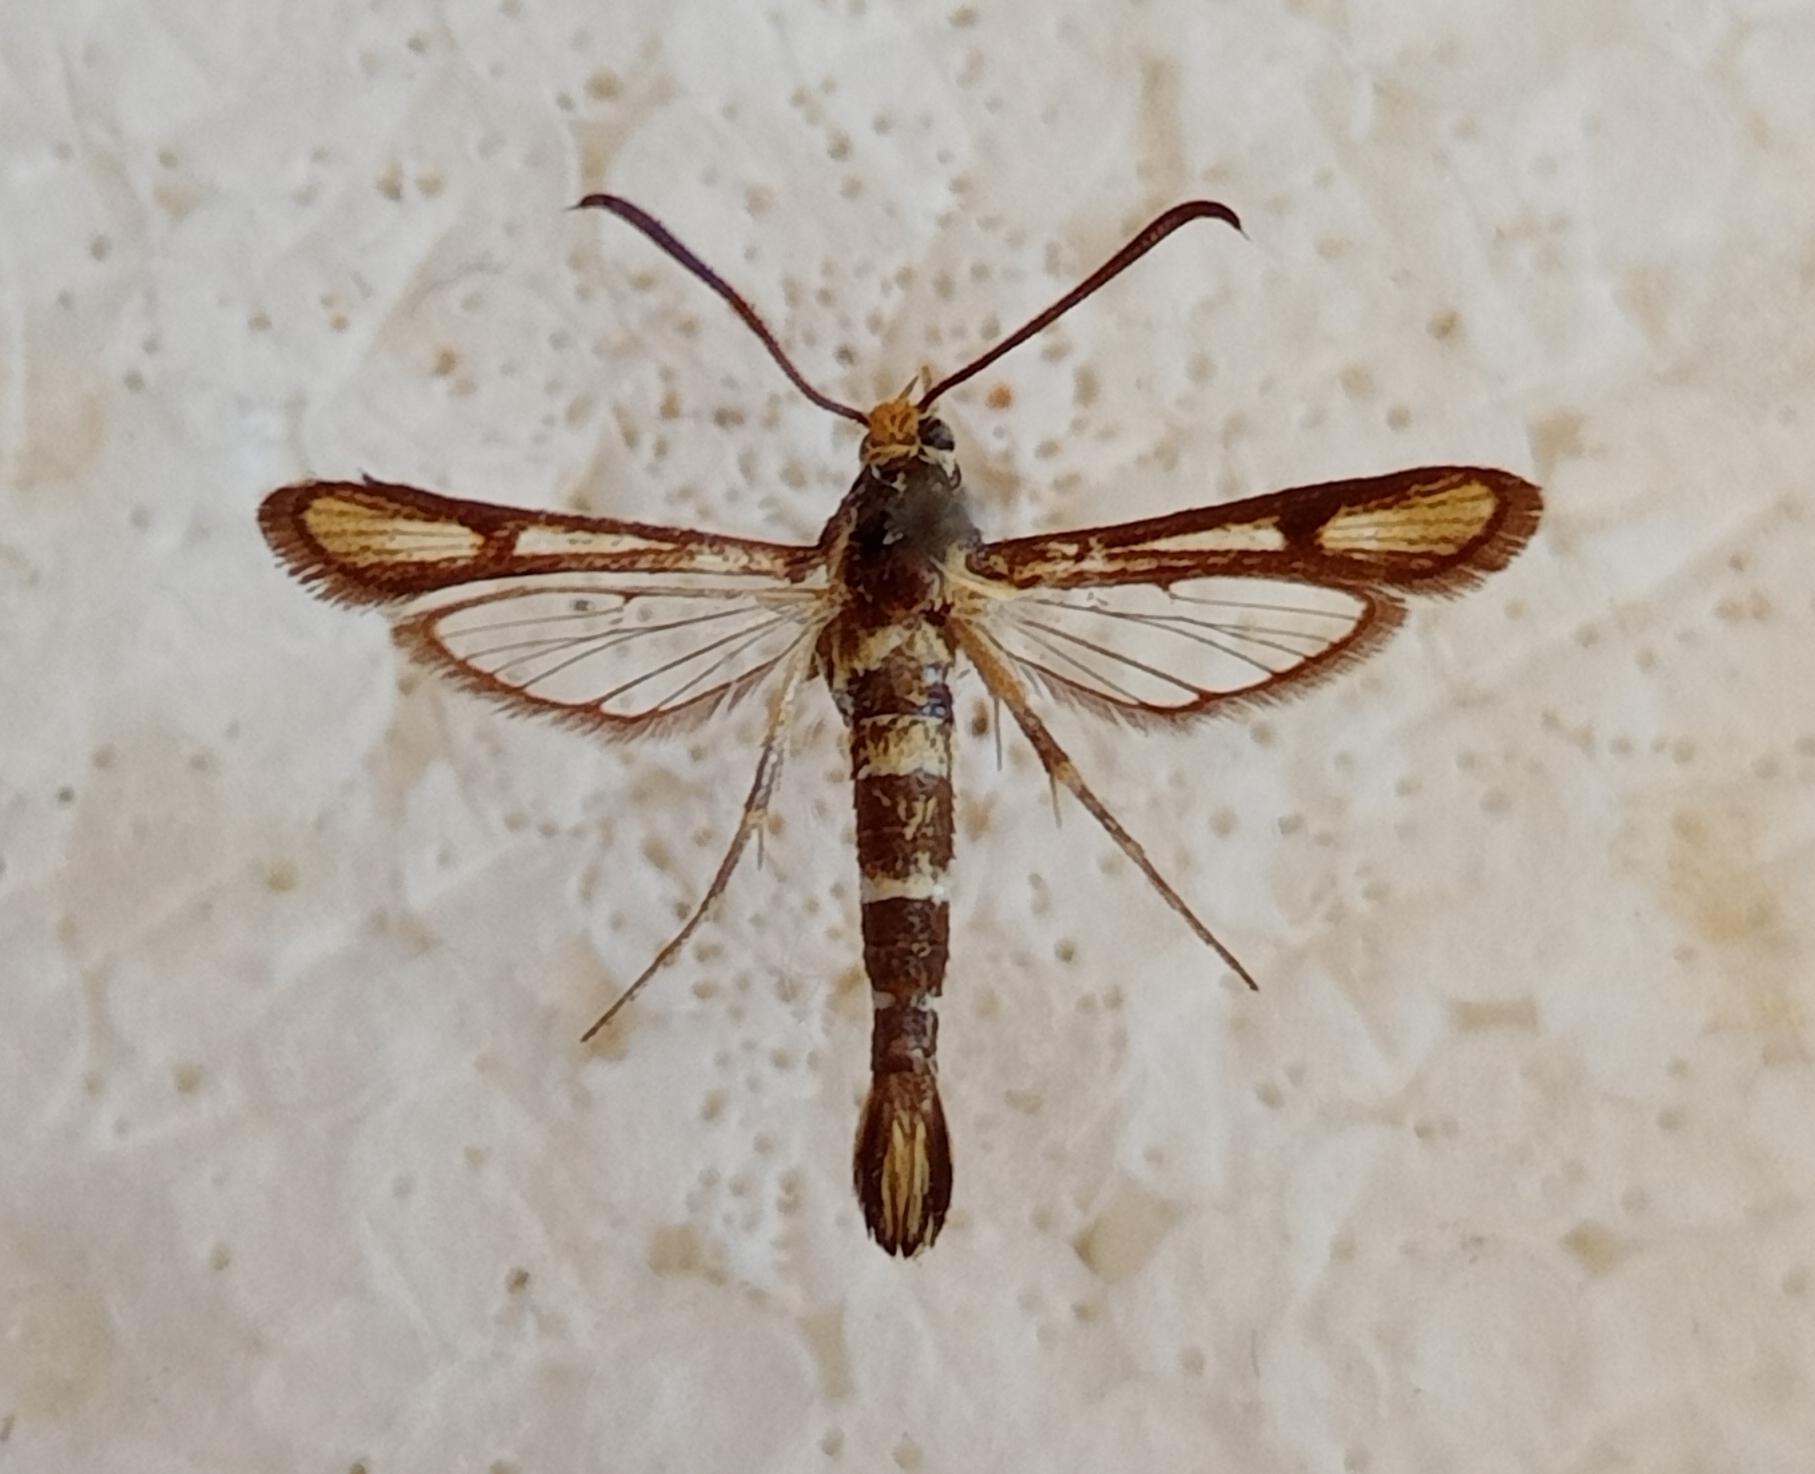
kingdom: Animalia
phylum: Arthropoda
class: Insecta
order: Lepidoptera
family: Sesiidae
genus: Chamaesphecia
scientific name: Chamaesphecia schwingenschussi
